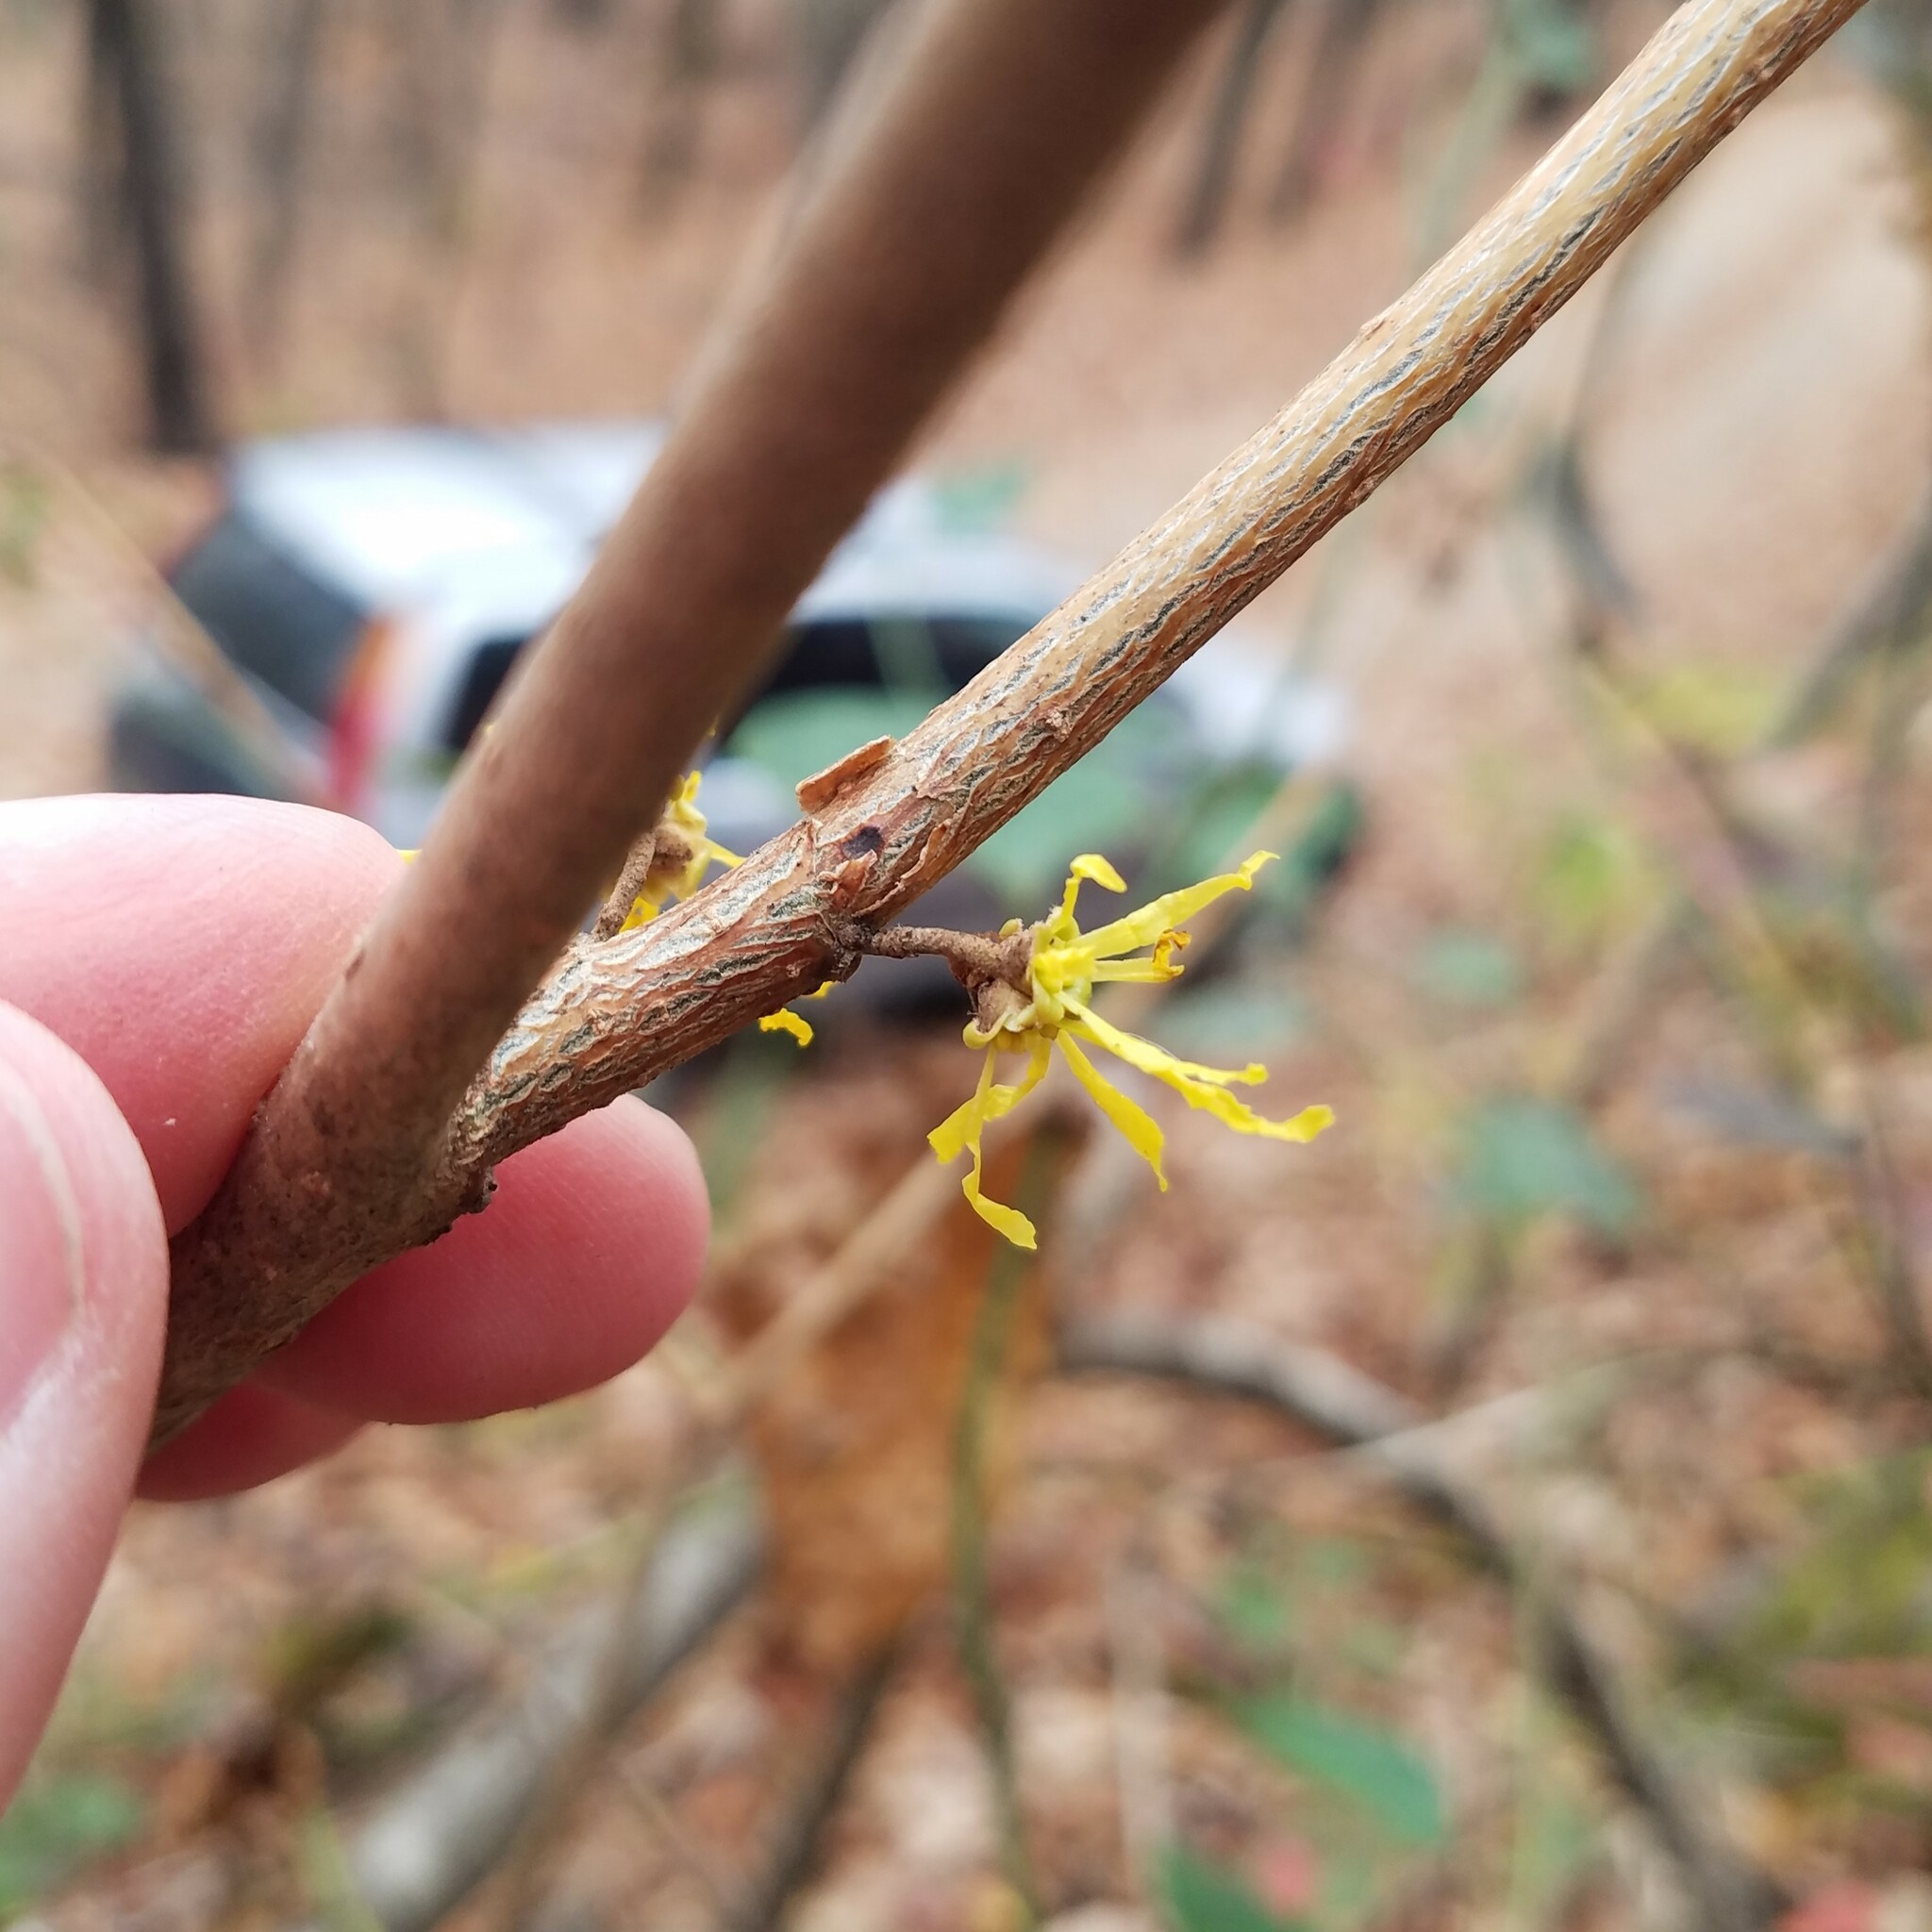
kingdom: Plantae
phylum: Tracheophyta
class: Magnoliopsida
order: Saxifragales
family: Hamamelidaceae
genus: Hamamelis
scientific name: Hamamelis virginiana
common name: Witch-hazel
